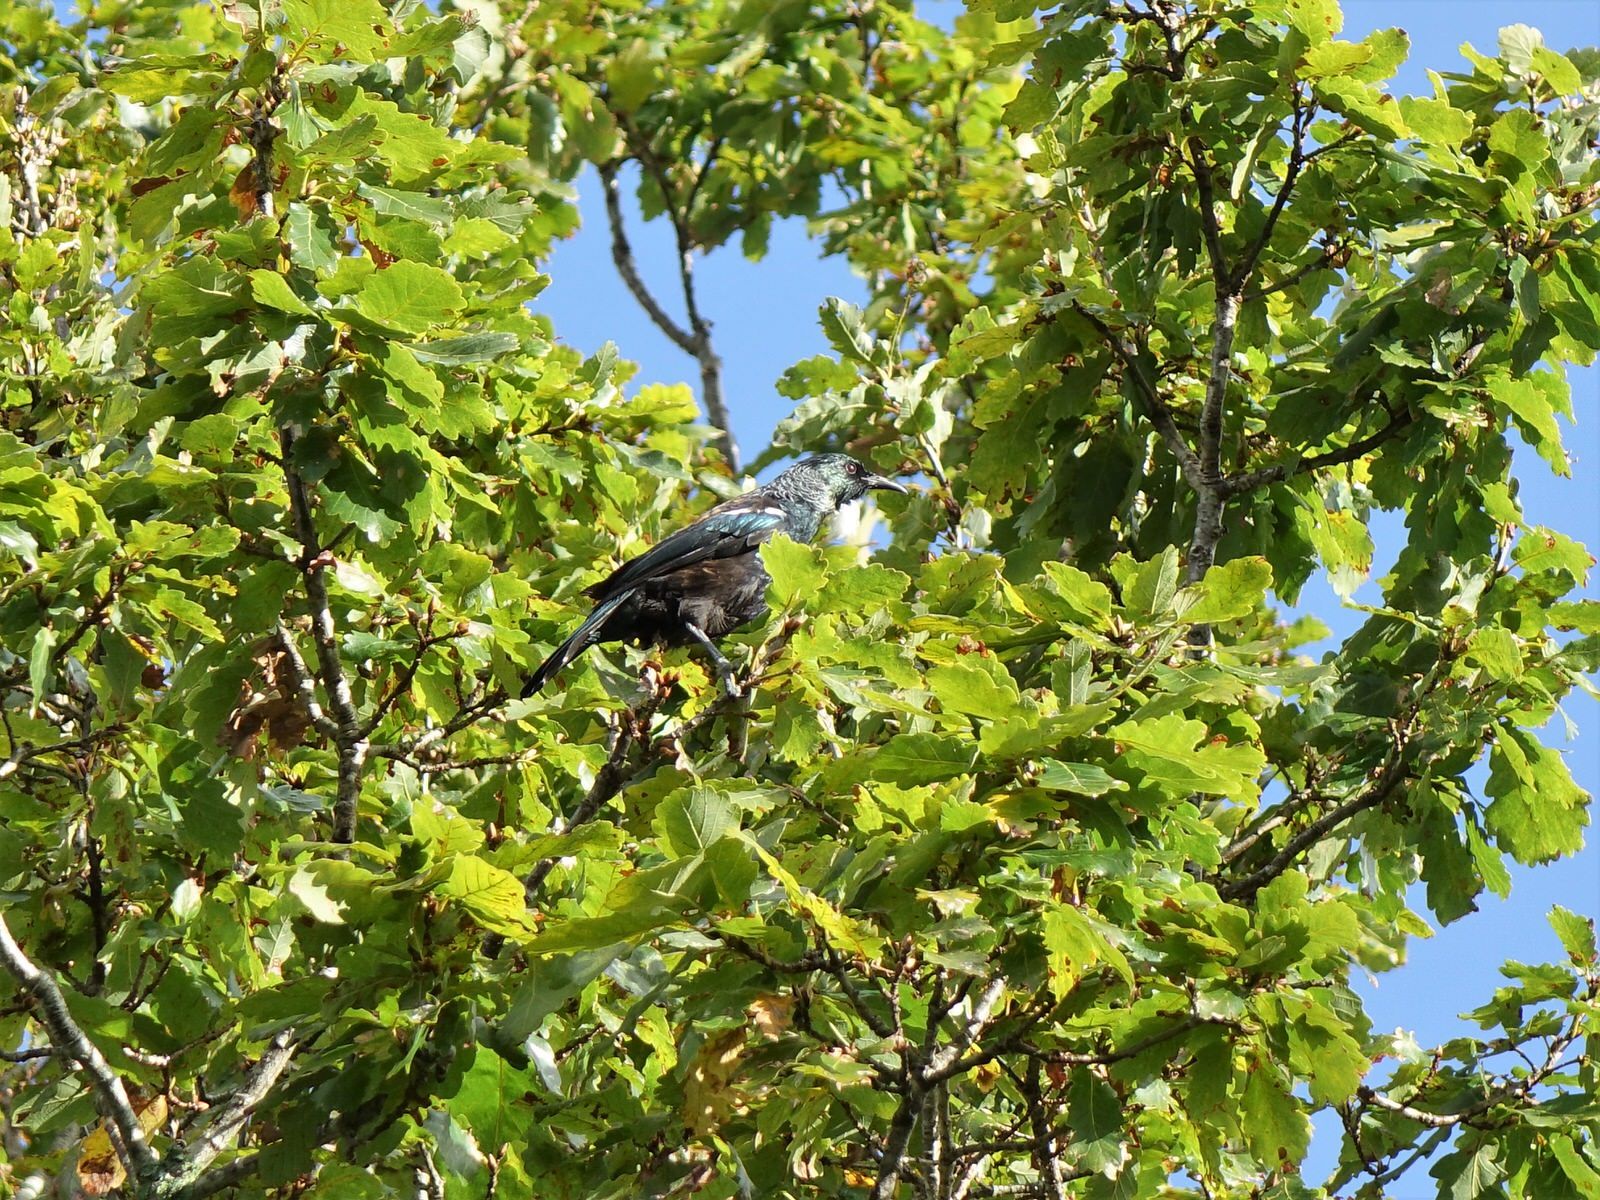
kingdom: Animalia
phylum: Chordata
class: Aves
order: Passeriformes
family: Meliphagidae
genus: Prosthemadera
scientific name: Prosthemadera novaeseelandiae
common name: Tui
